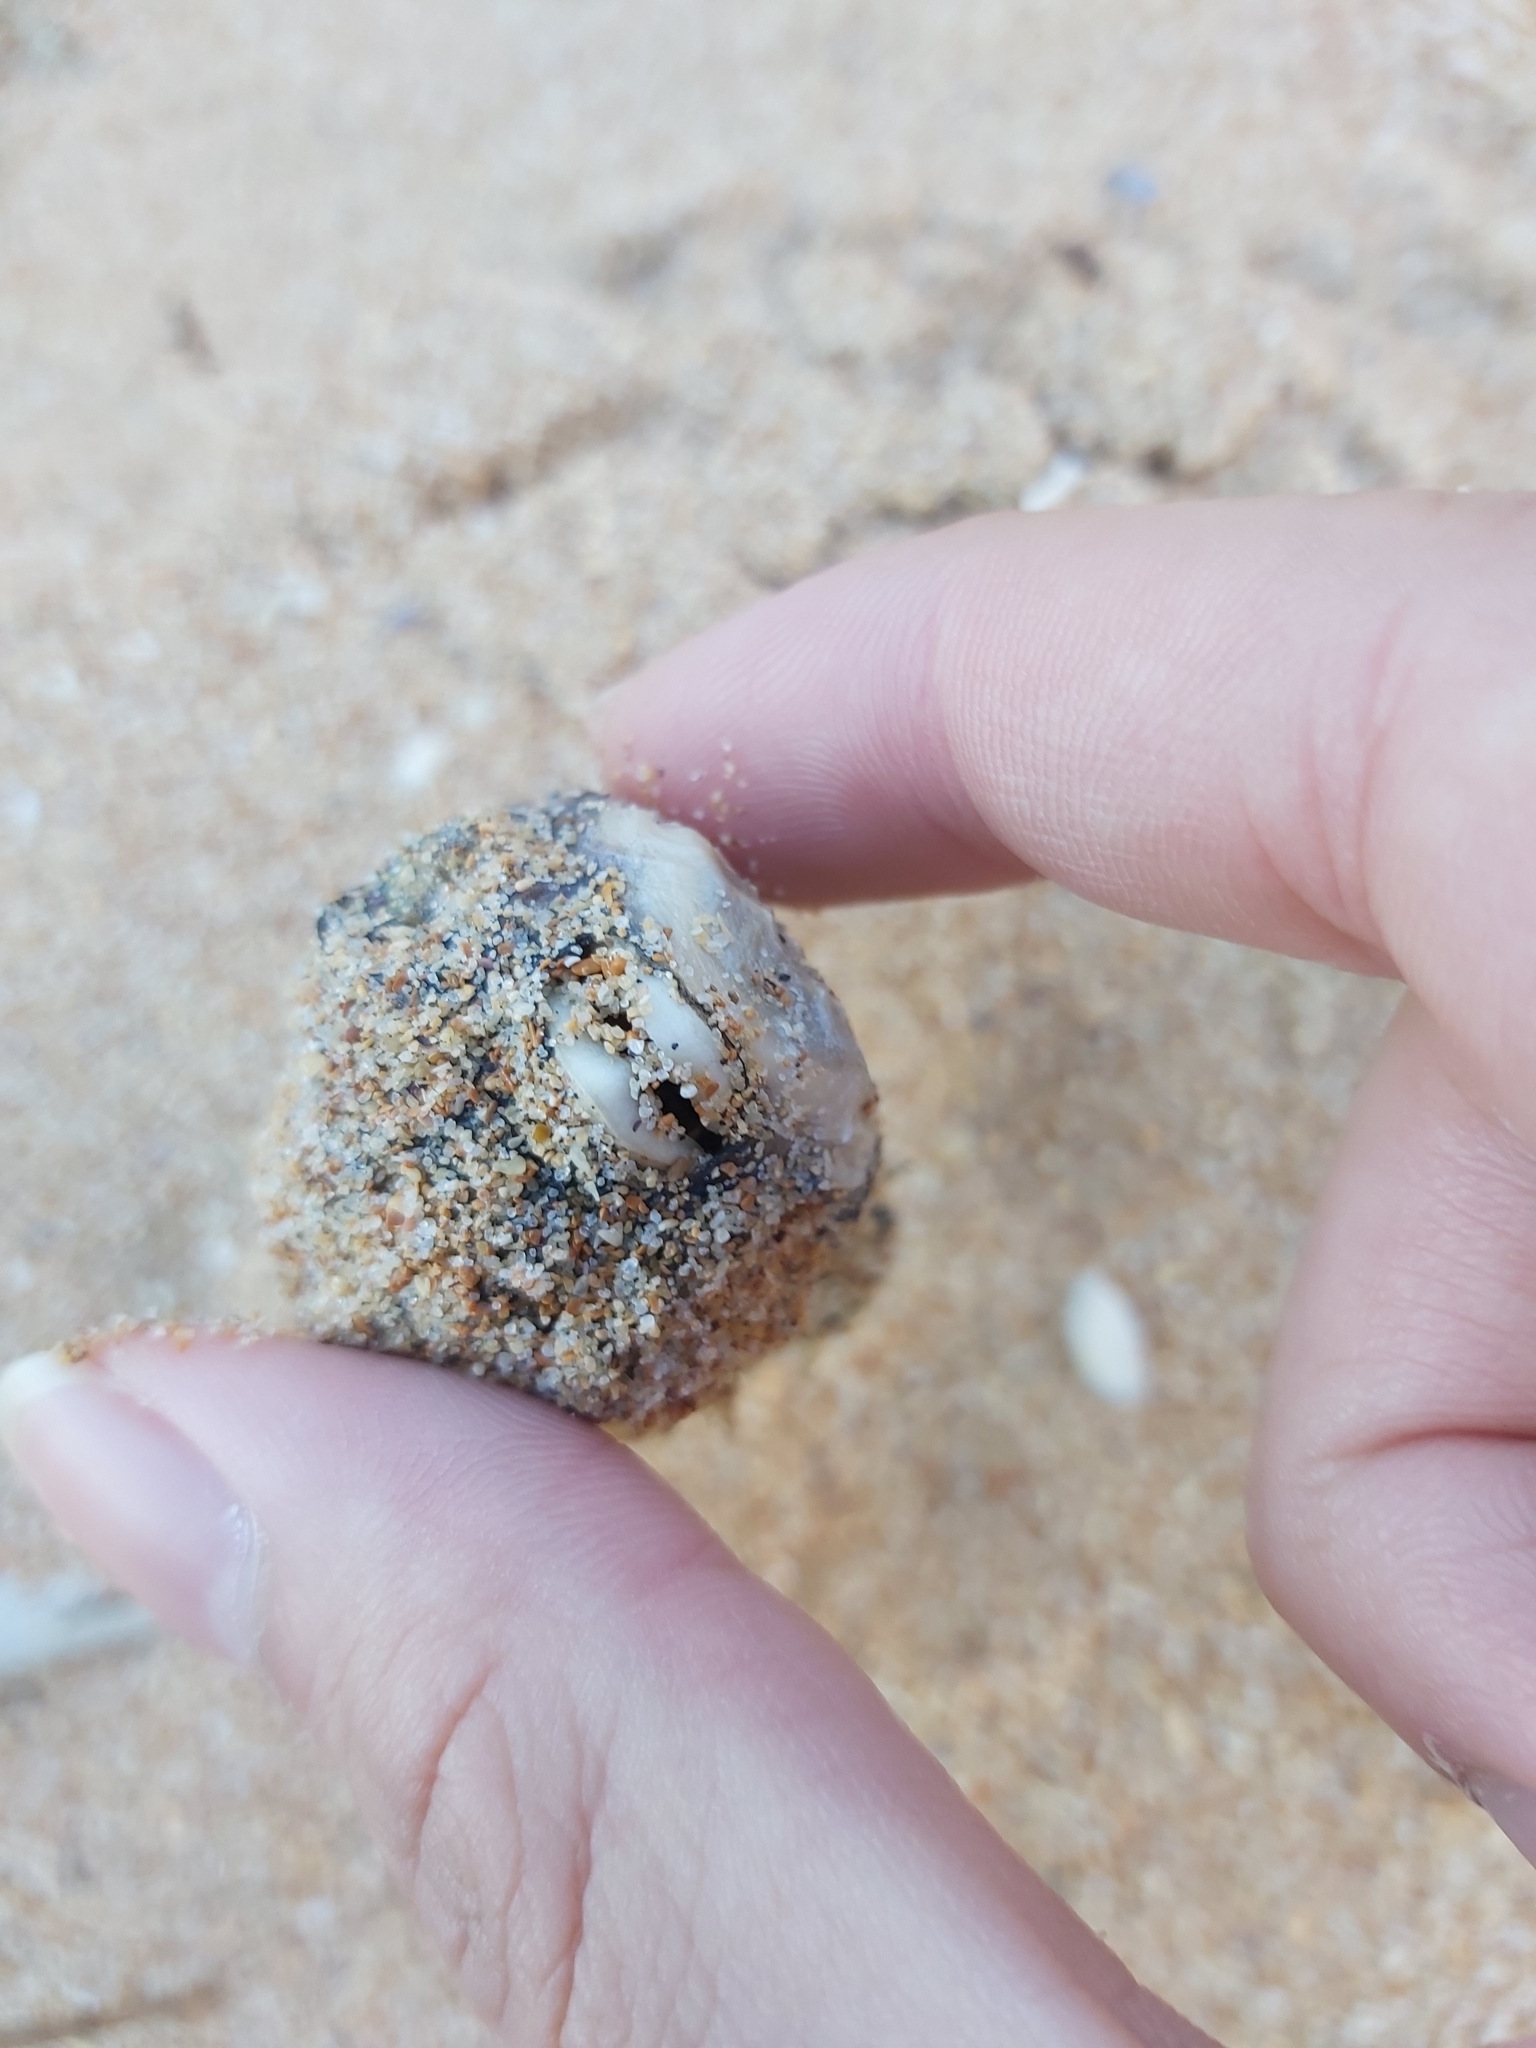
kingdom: Animalia
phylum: Chordata
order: Tetraodontiformes
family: Diodontidae
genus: Diodon
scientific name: Diodon holocanthus
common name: Balloonfish
